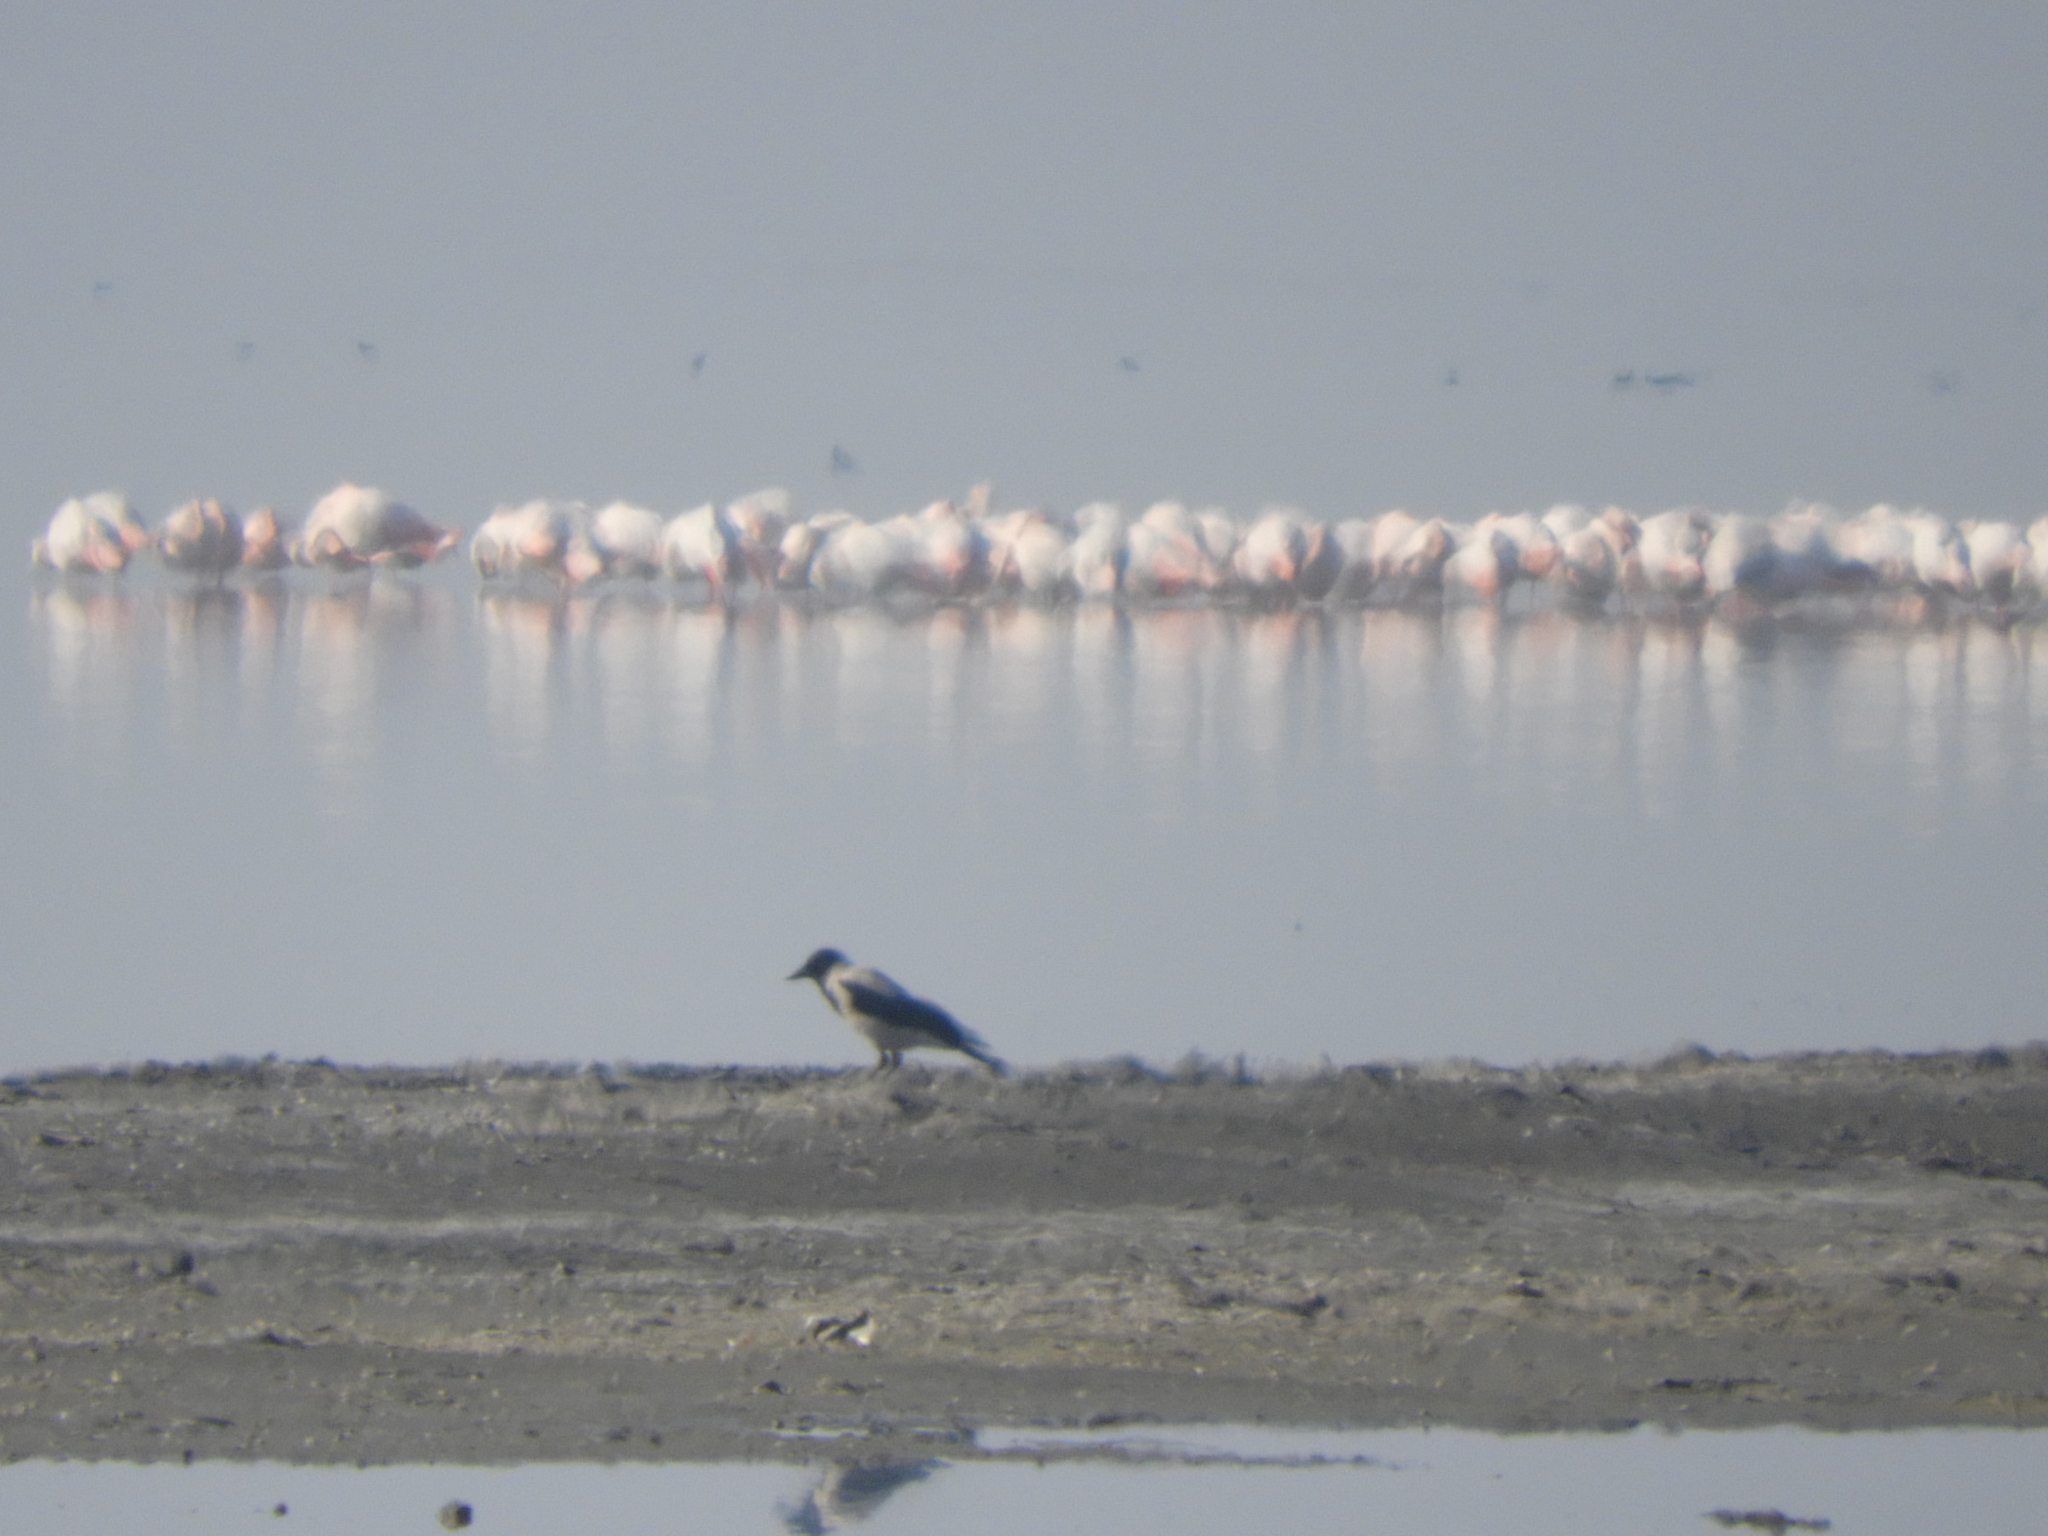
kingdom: Animalia
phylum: Chordata
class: Aves
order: Passeriformes
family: Corvidae
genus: Corvus
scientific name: Corvus cornix
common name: Hooded crow
